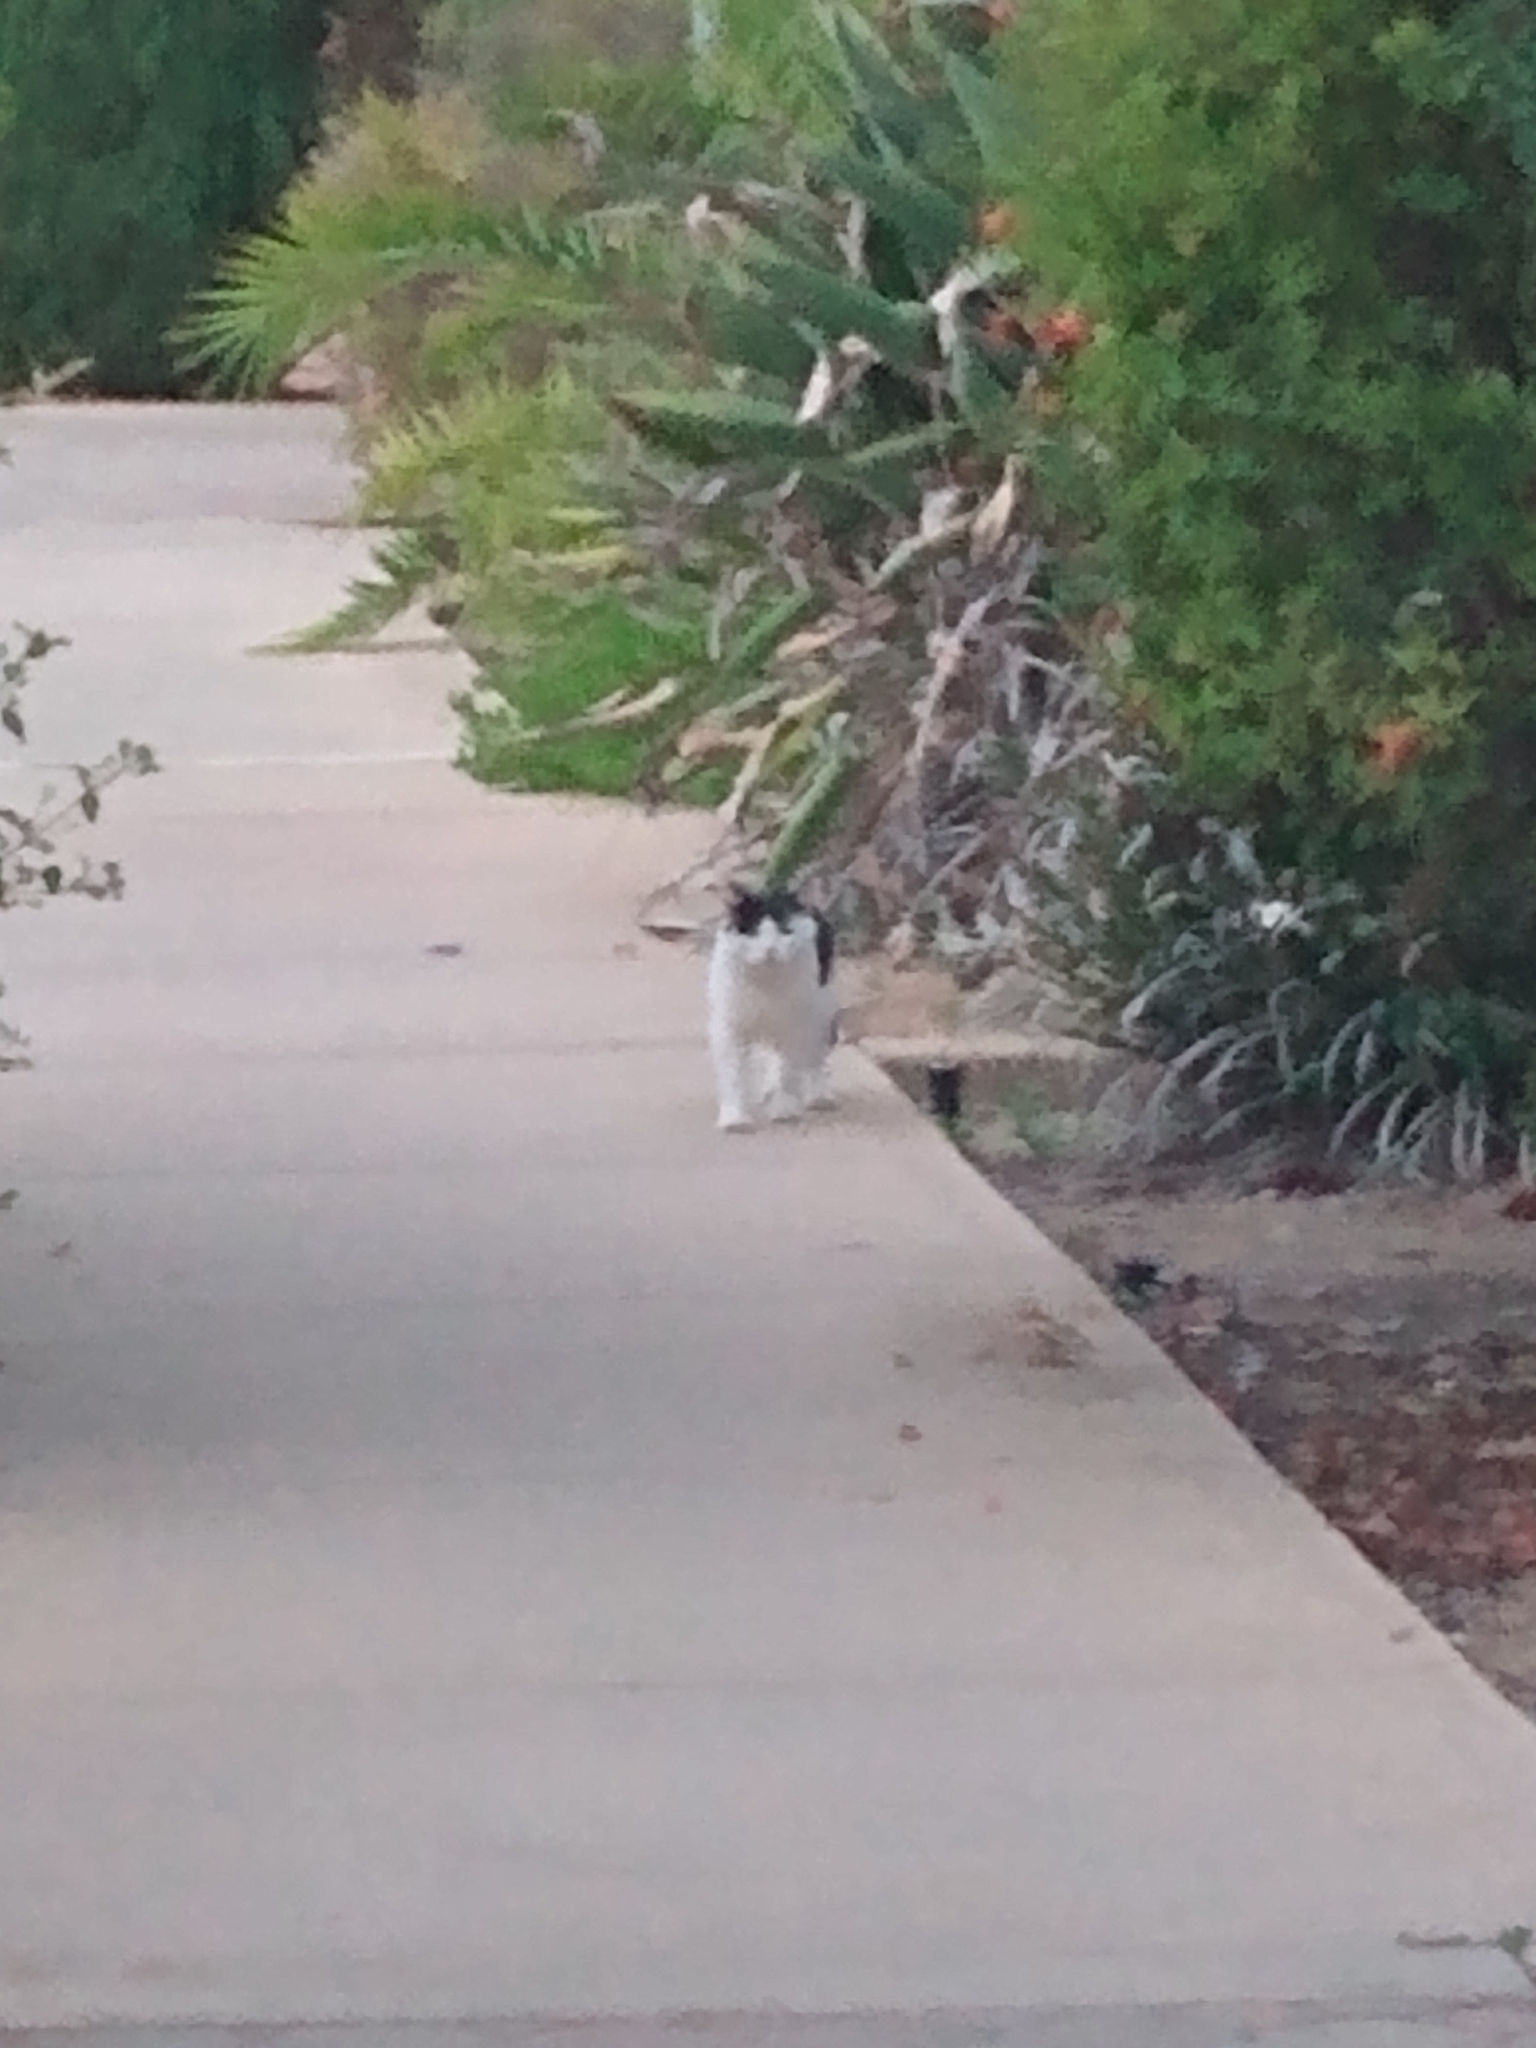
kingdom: Animalia
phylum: Chordata
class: Mammalia
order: Carnivora
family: Felidae
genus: Felis
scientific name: Felis catus
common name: Domestic cat
